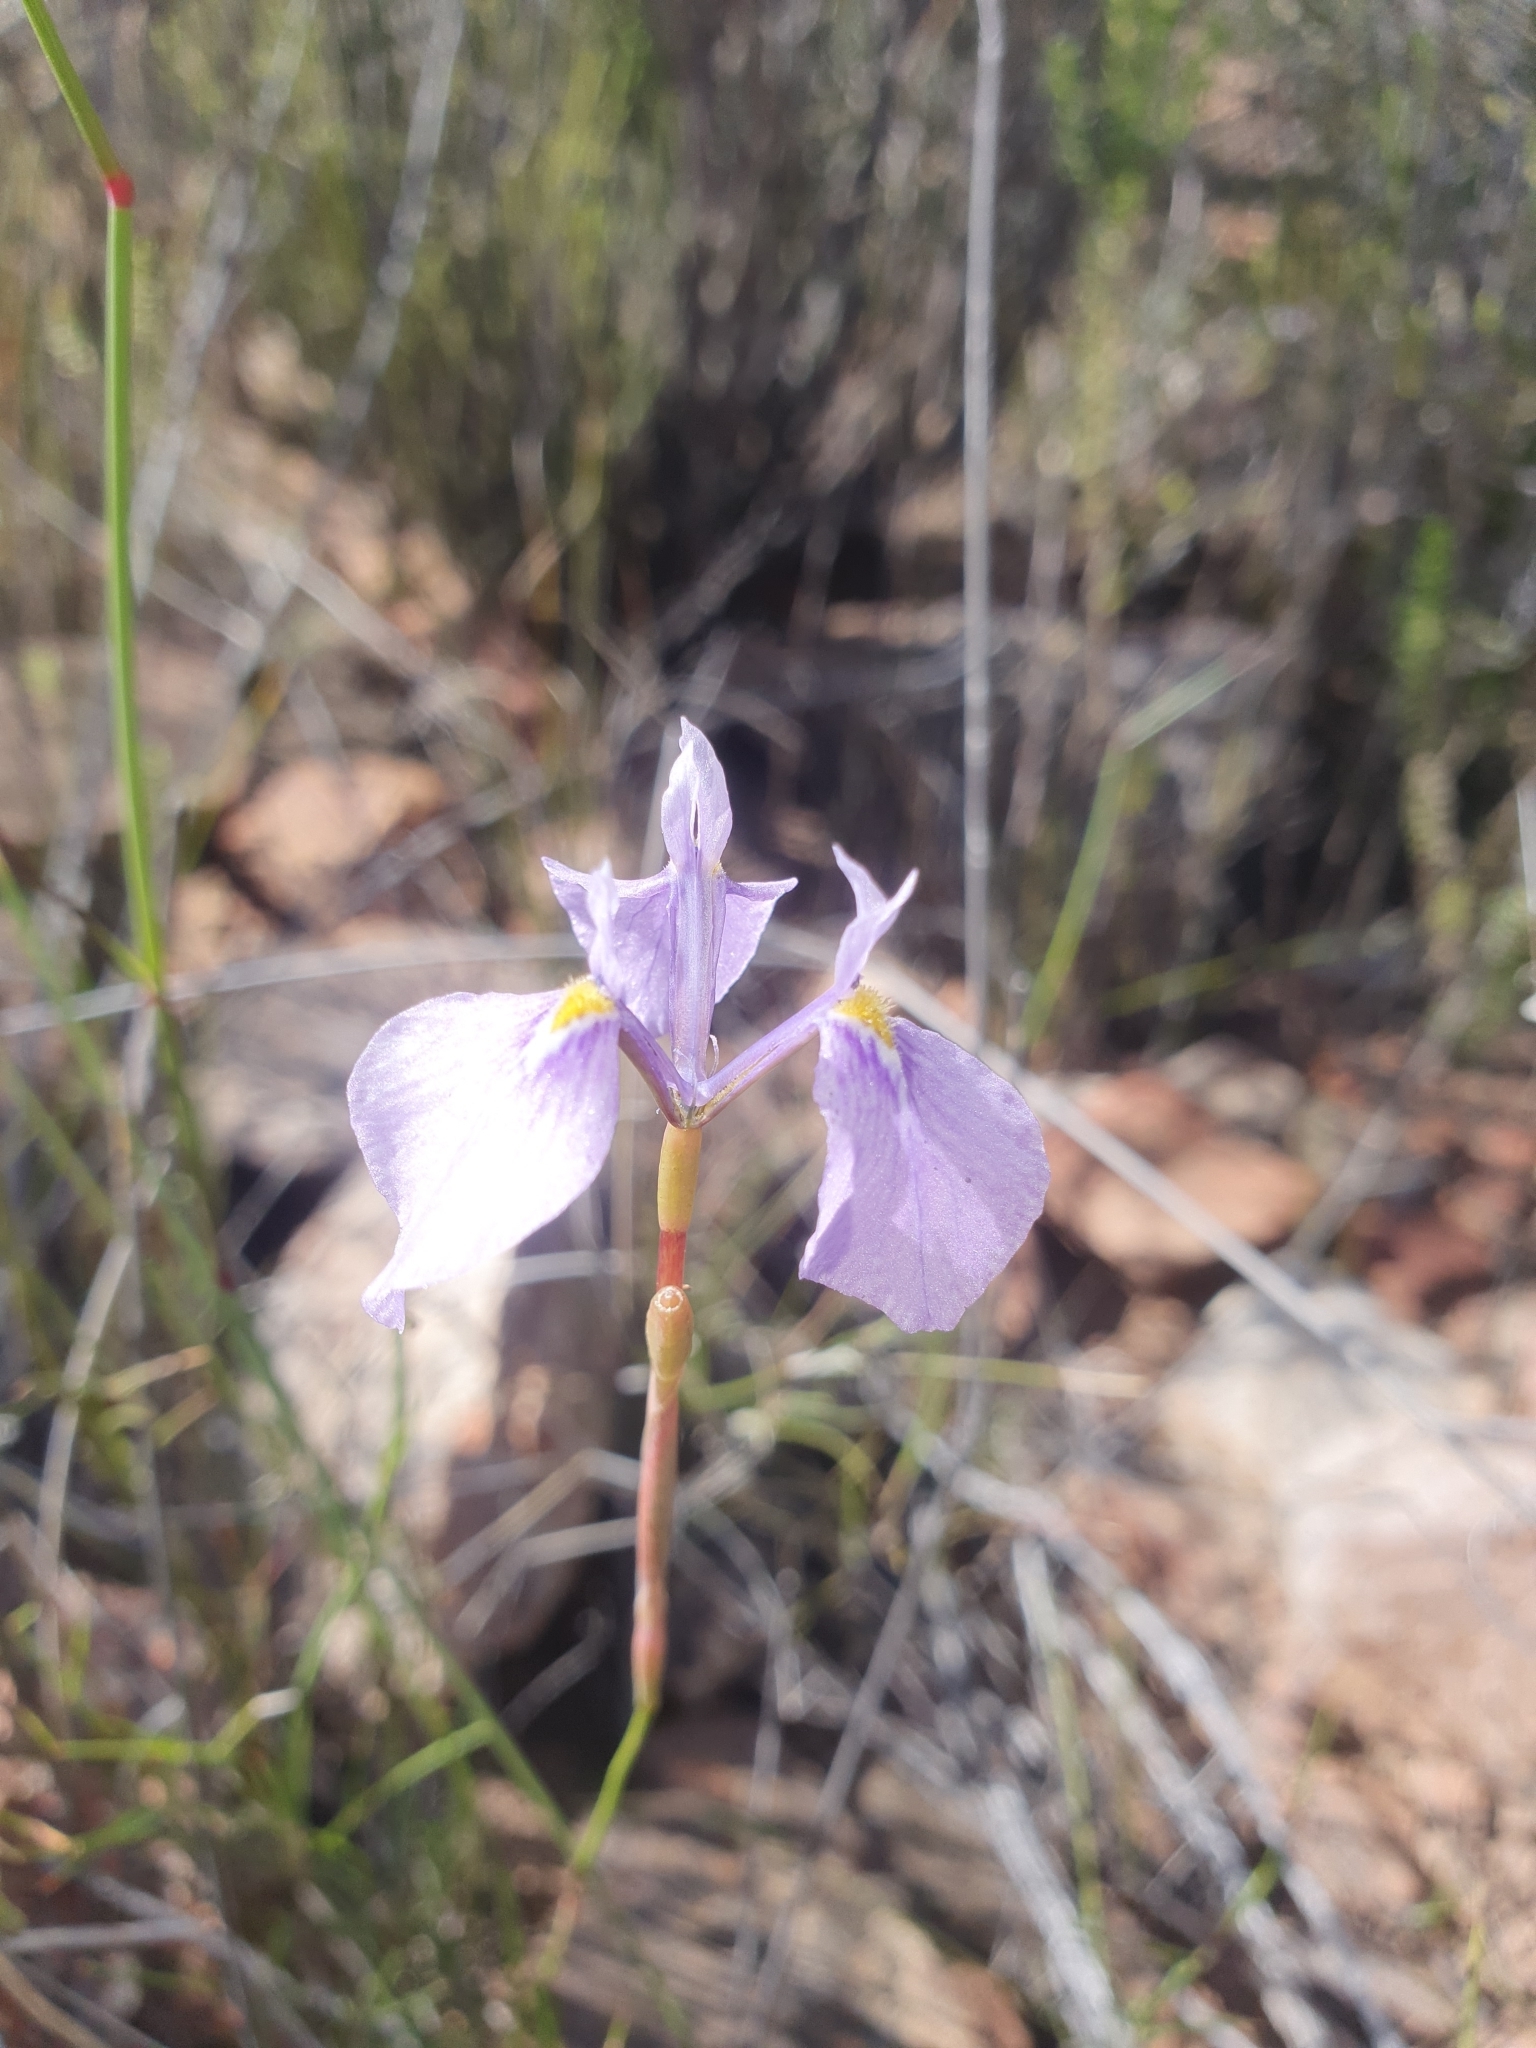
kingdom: Plantae
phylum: Tracheophyta
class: Liliopsida
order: Asparagales
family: Iridaceae
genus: Moraea
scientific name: Moraea tripetala
